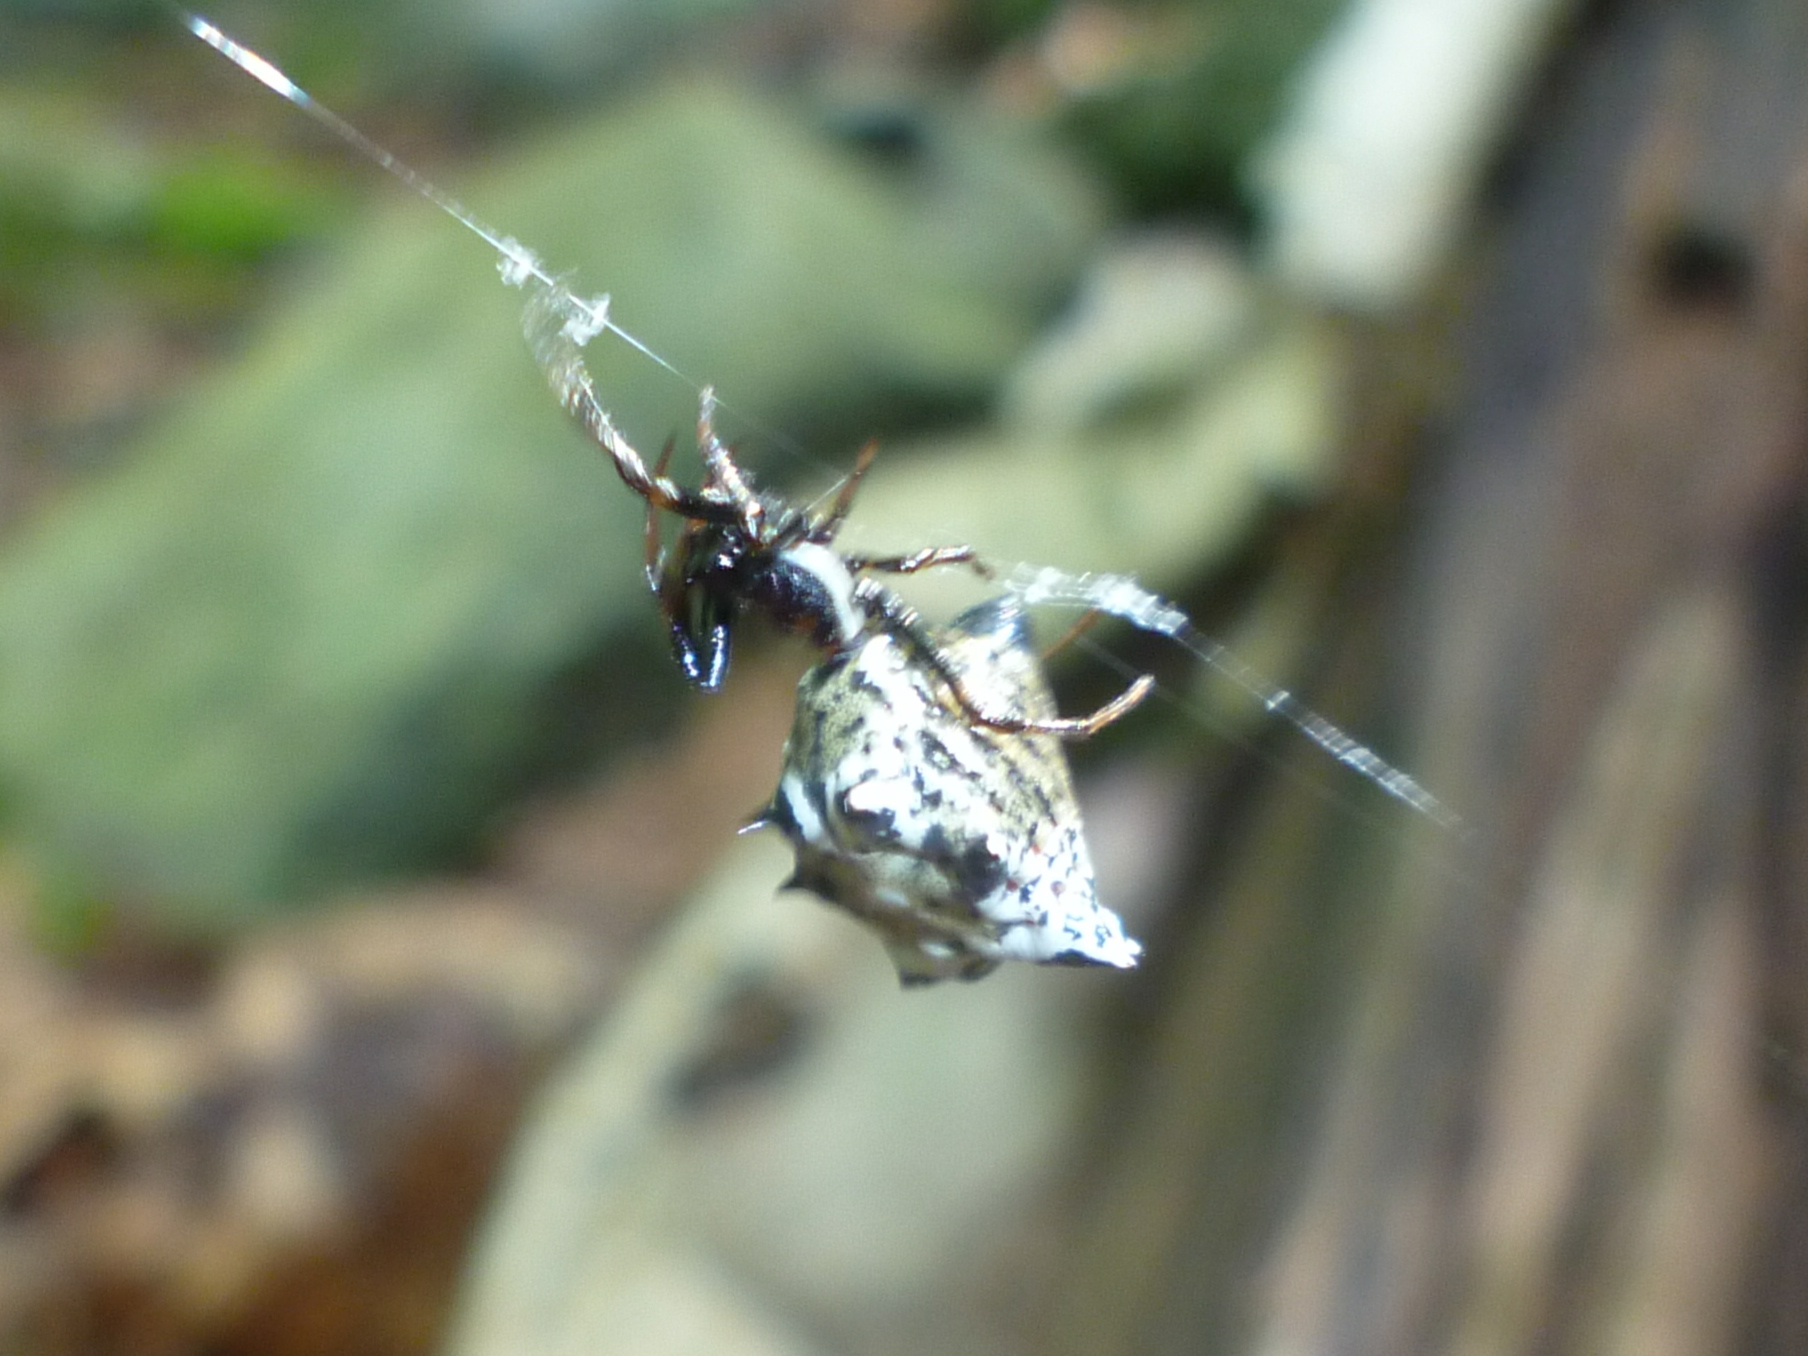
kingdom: Animalia
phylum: Arthropoda
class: Arachnida
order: Araneae
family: Araneidae
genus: Micrathena
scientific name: Micrathena gracilis
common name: Orb weavers
